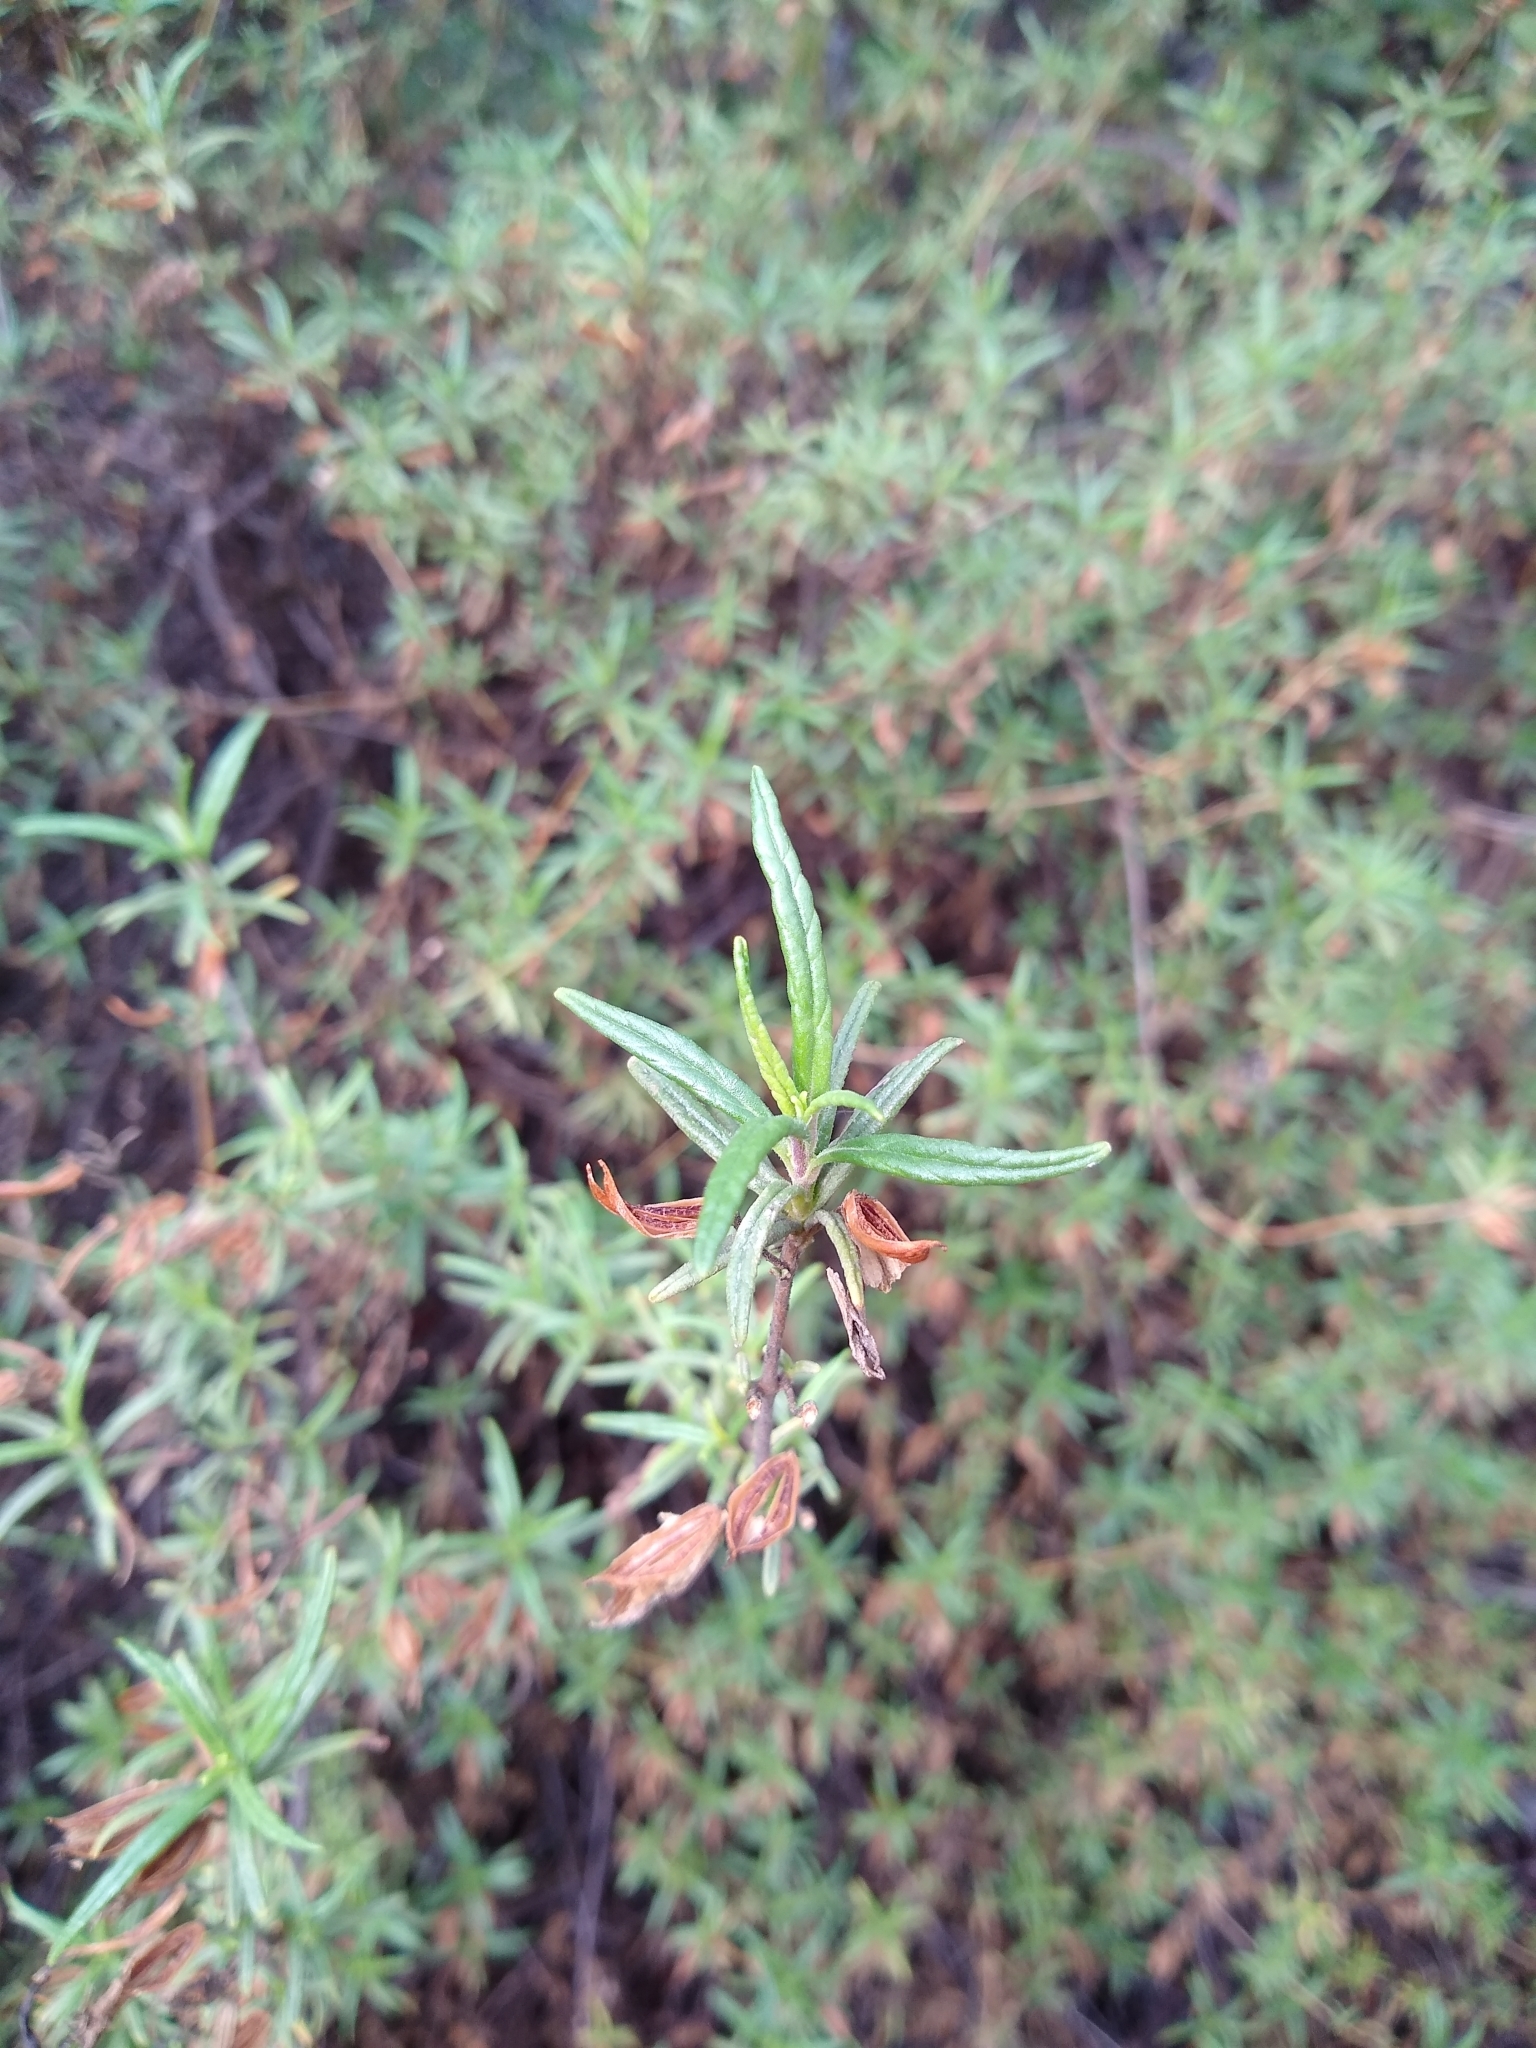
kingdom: Plantae
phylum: Tracheophyta
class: Magnoliopsida
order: Lamiales
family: Phrymaceae
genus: Diplacus
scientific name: Diplacus aurantiacus
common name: Bush monkey-flower
